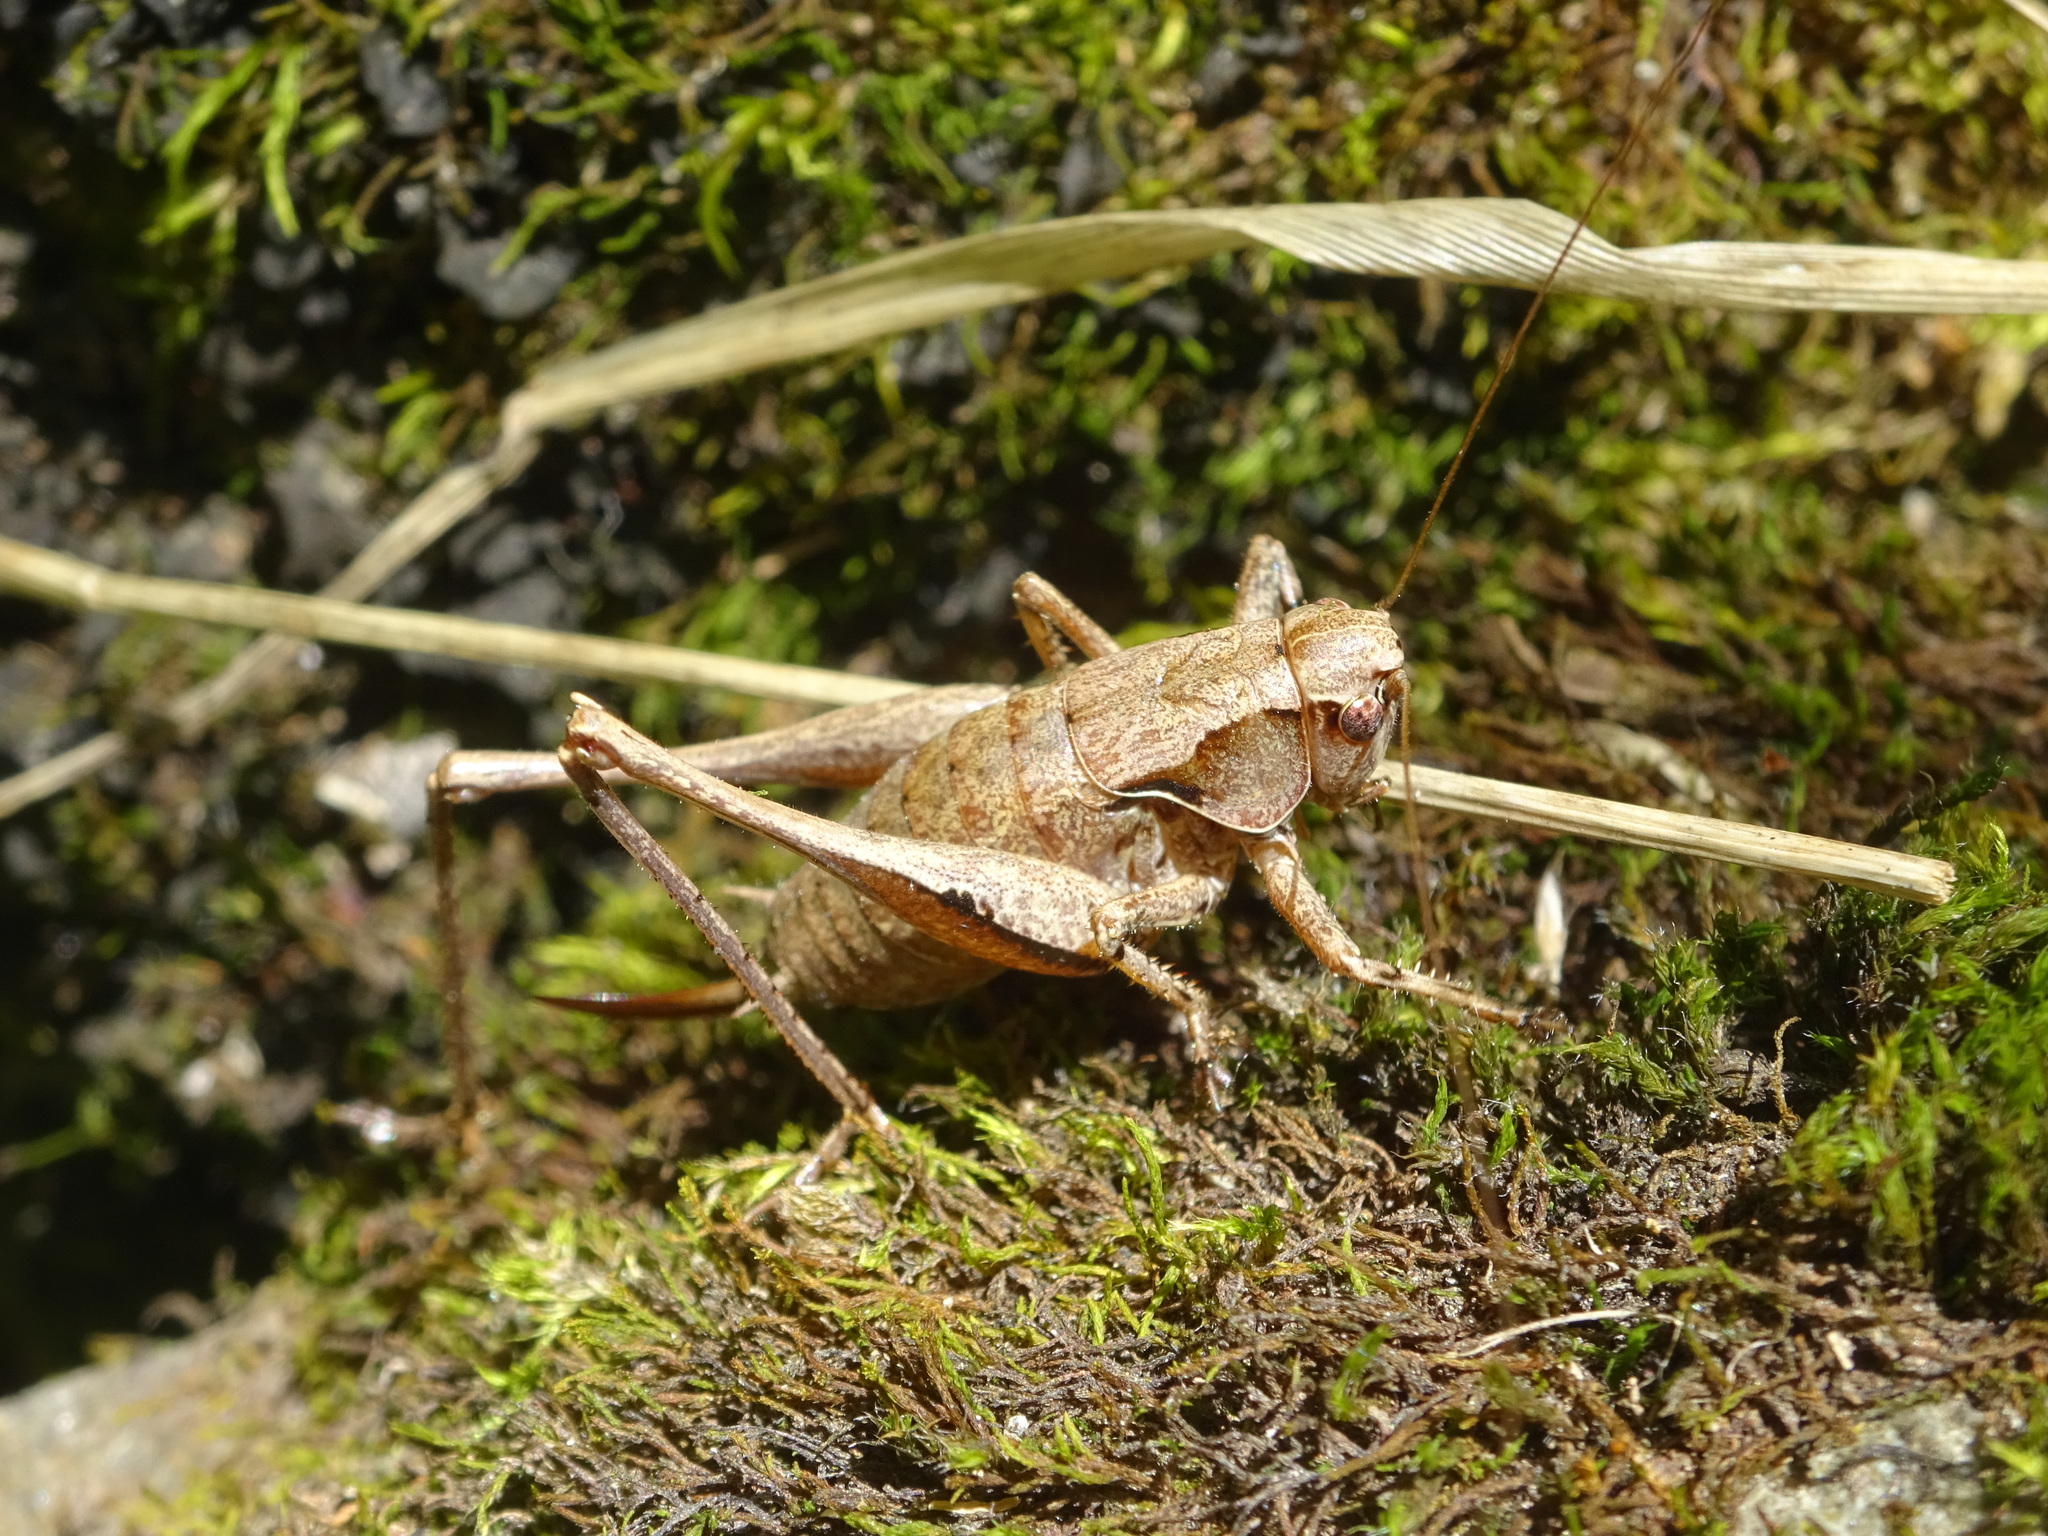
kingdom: Animalia
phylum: Arthropoda
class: Insecta
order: Orthoptera
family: Tettigoniidae
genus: Pholidoptera
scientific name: Pholidoptera griseoaptera
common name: Dark bush-cricket
